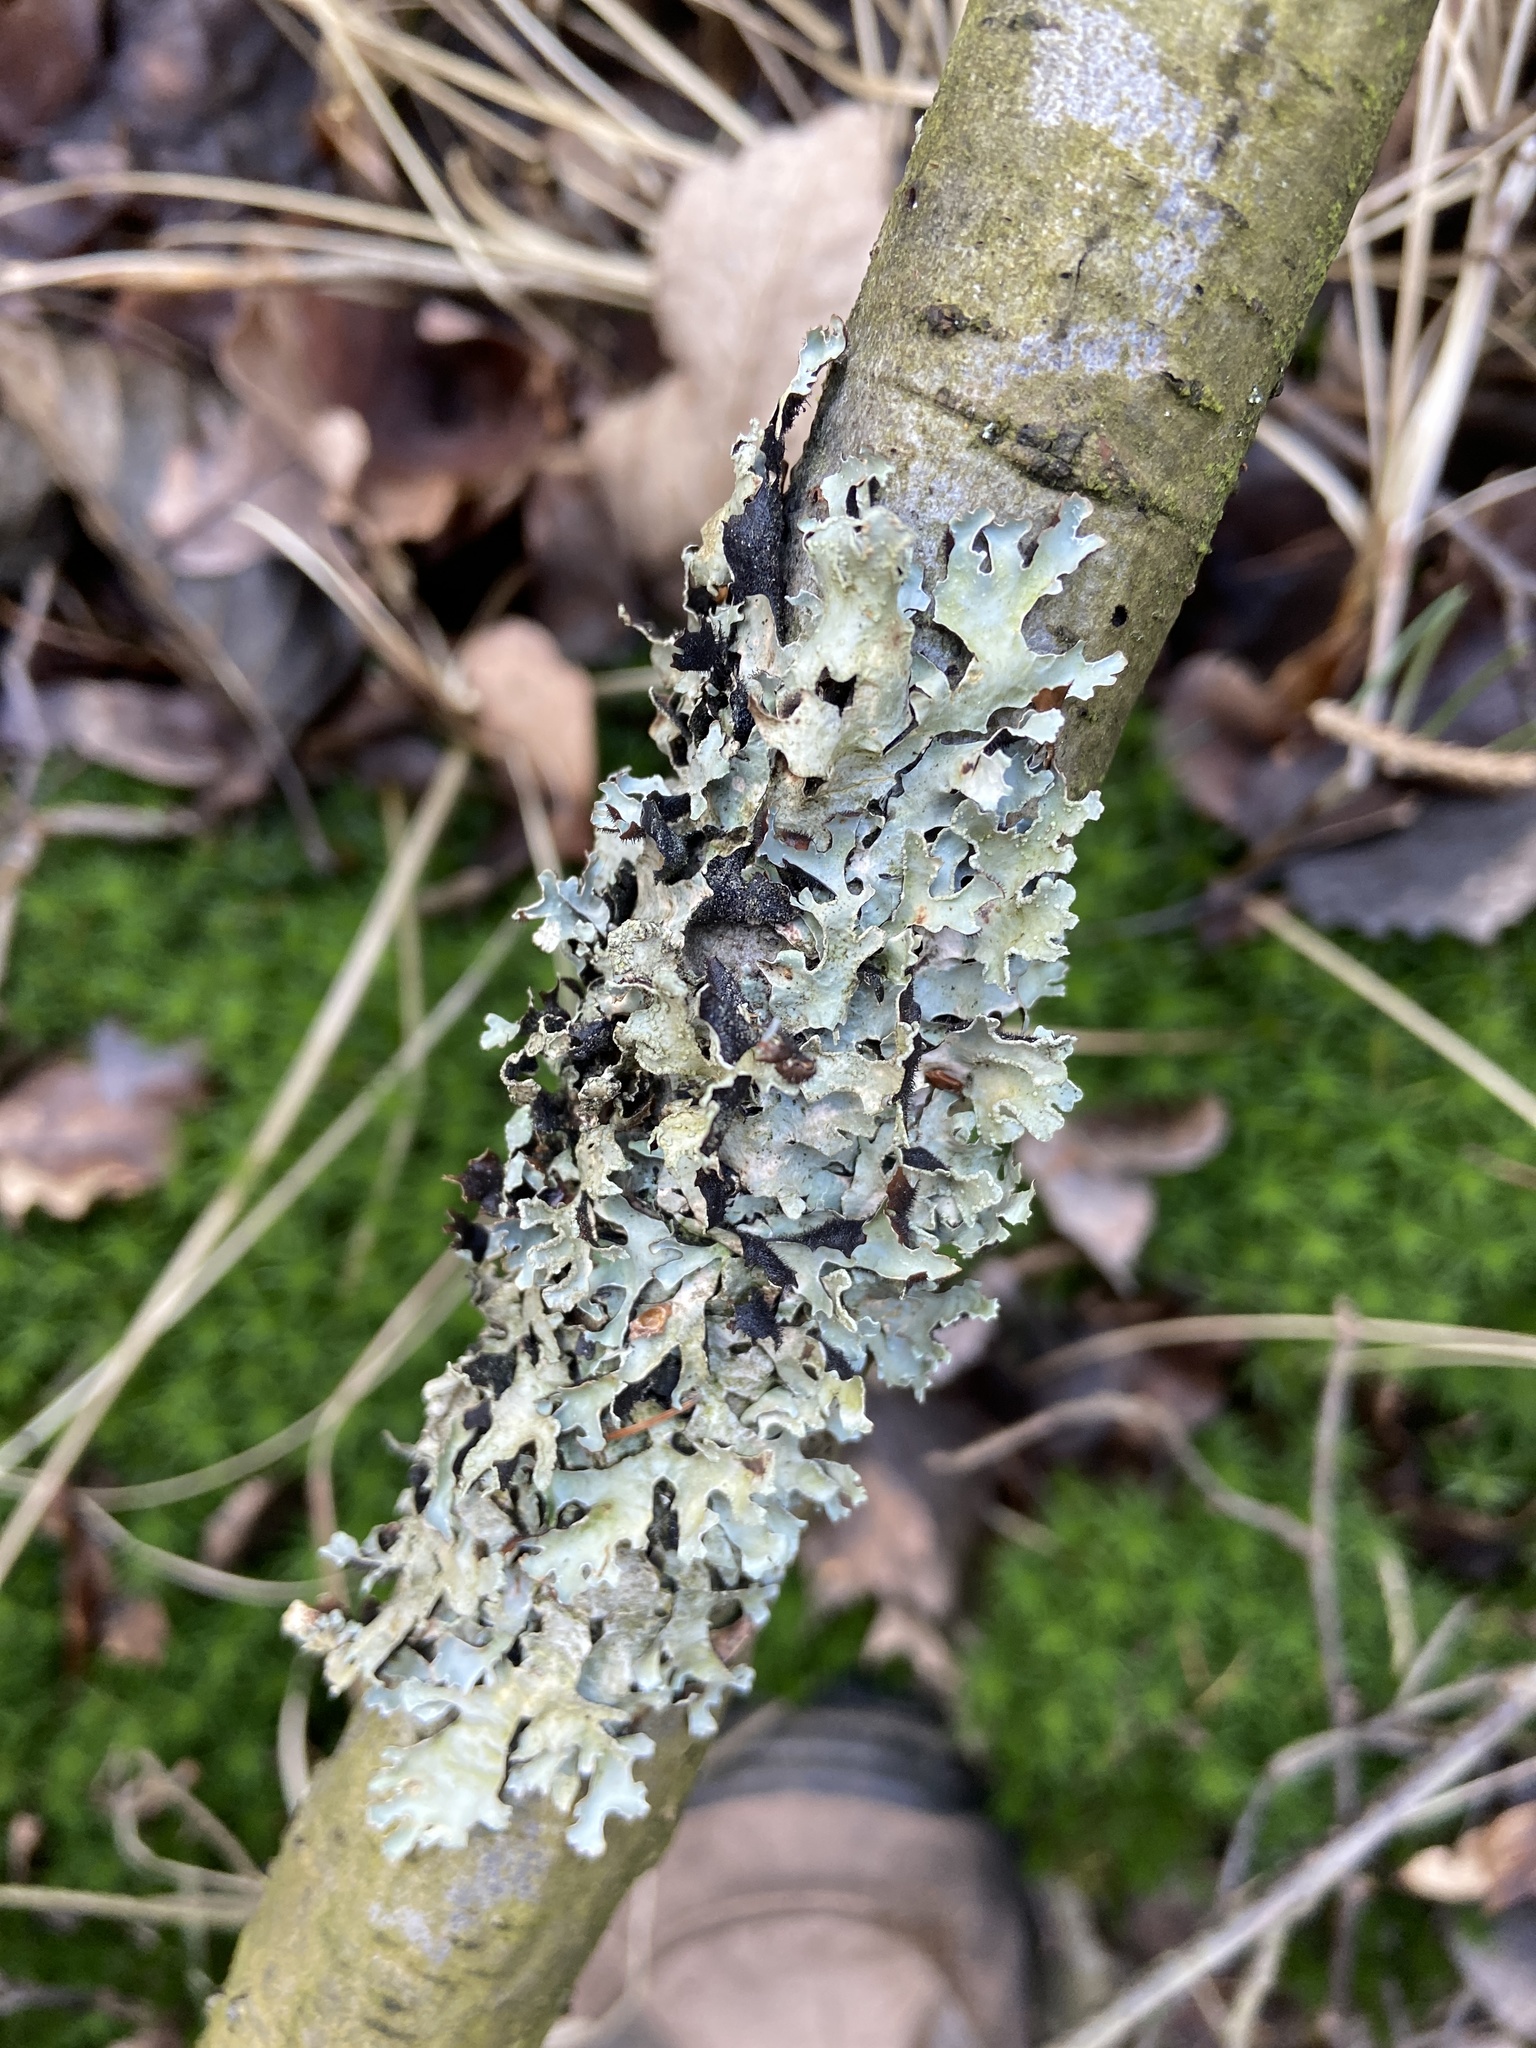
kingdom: Fungi
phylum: Ascomycota
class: Lecanoromycetes
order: Lecanorales
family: Parmeliaceae
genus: Parmelia
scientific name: Parmelia sulcata
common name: Netted shield lichen
